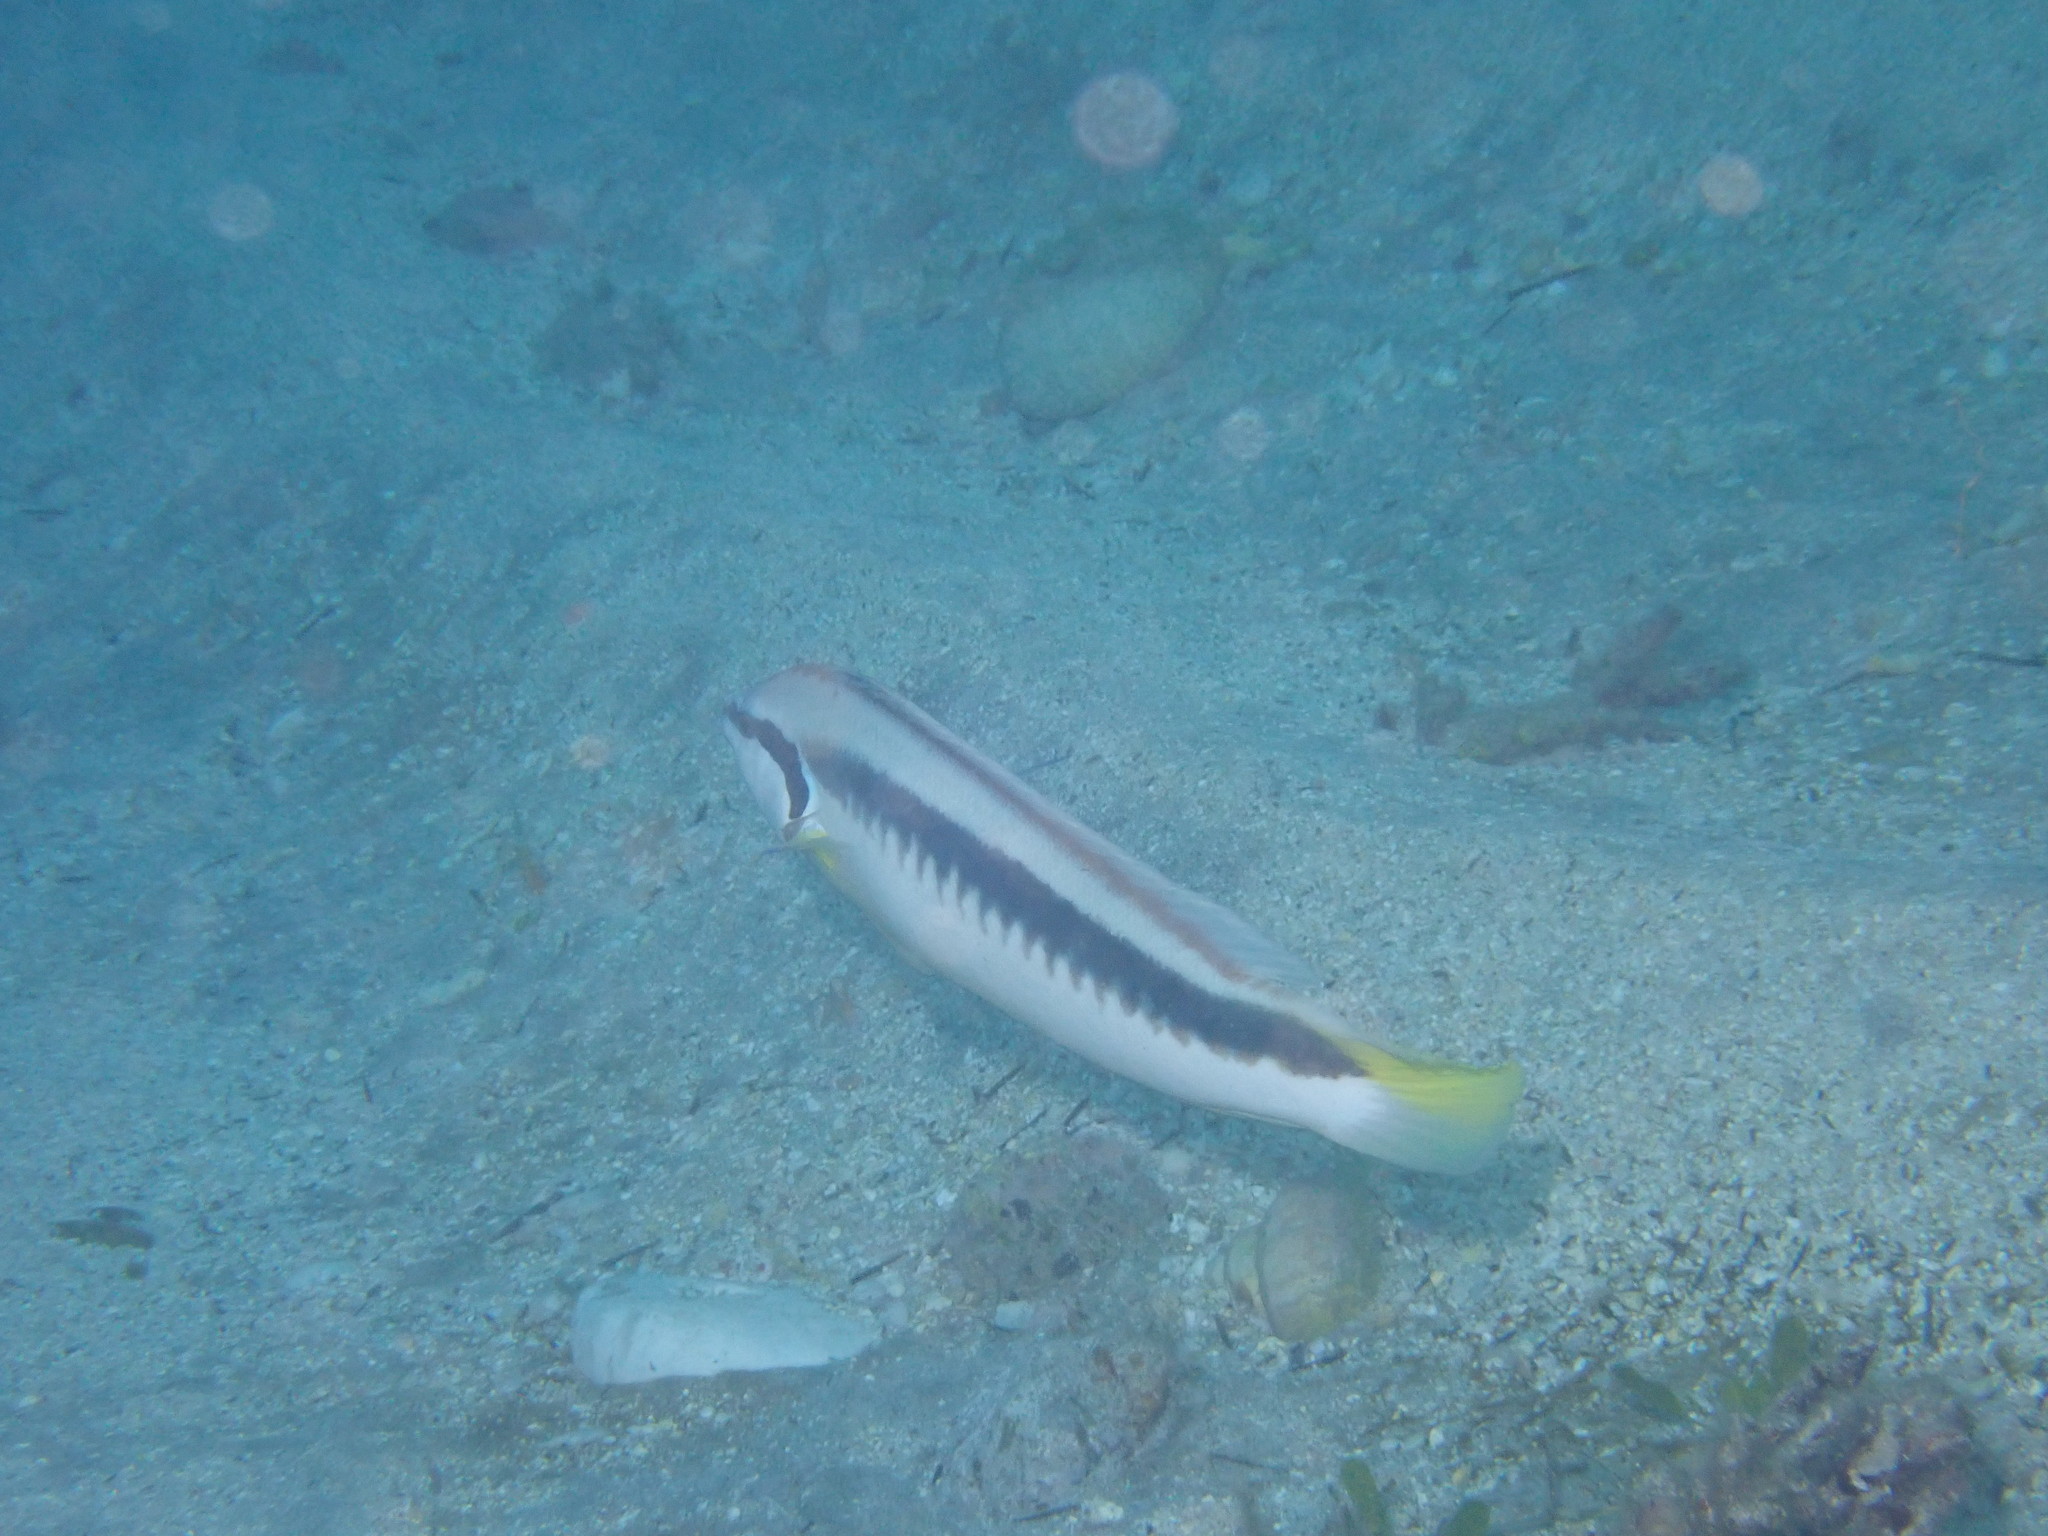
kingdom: Animalia
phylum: Chordata
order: Perciformes
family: Labridae
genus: Coris
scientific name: Coris picta
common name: Combfish
